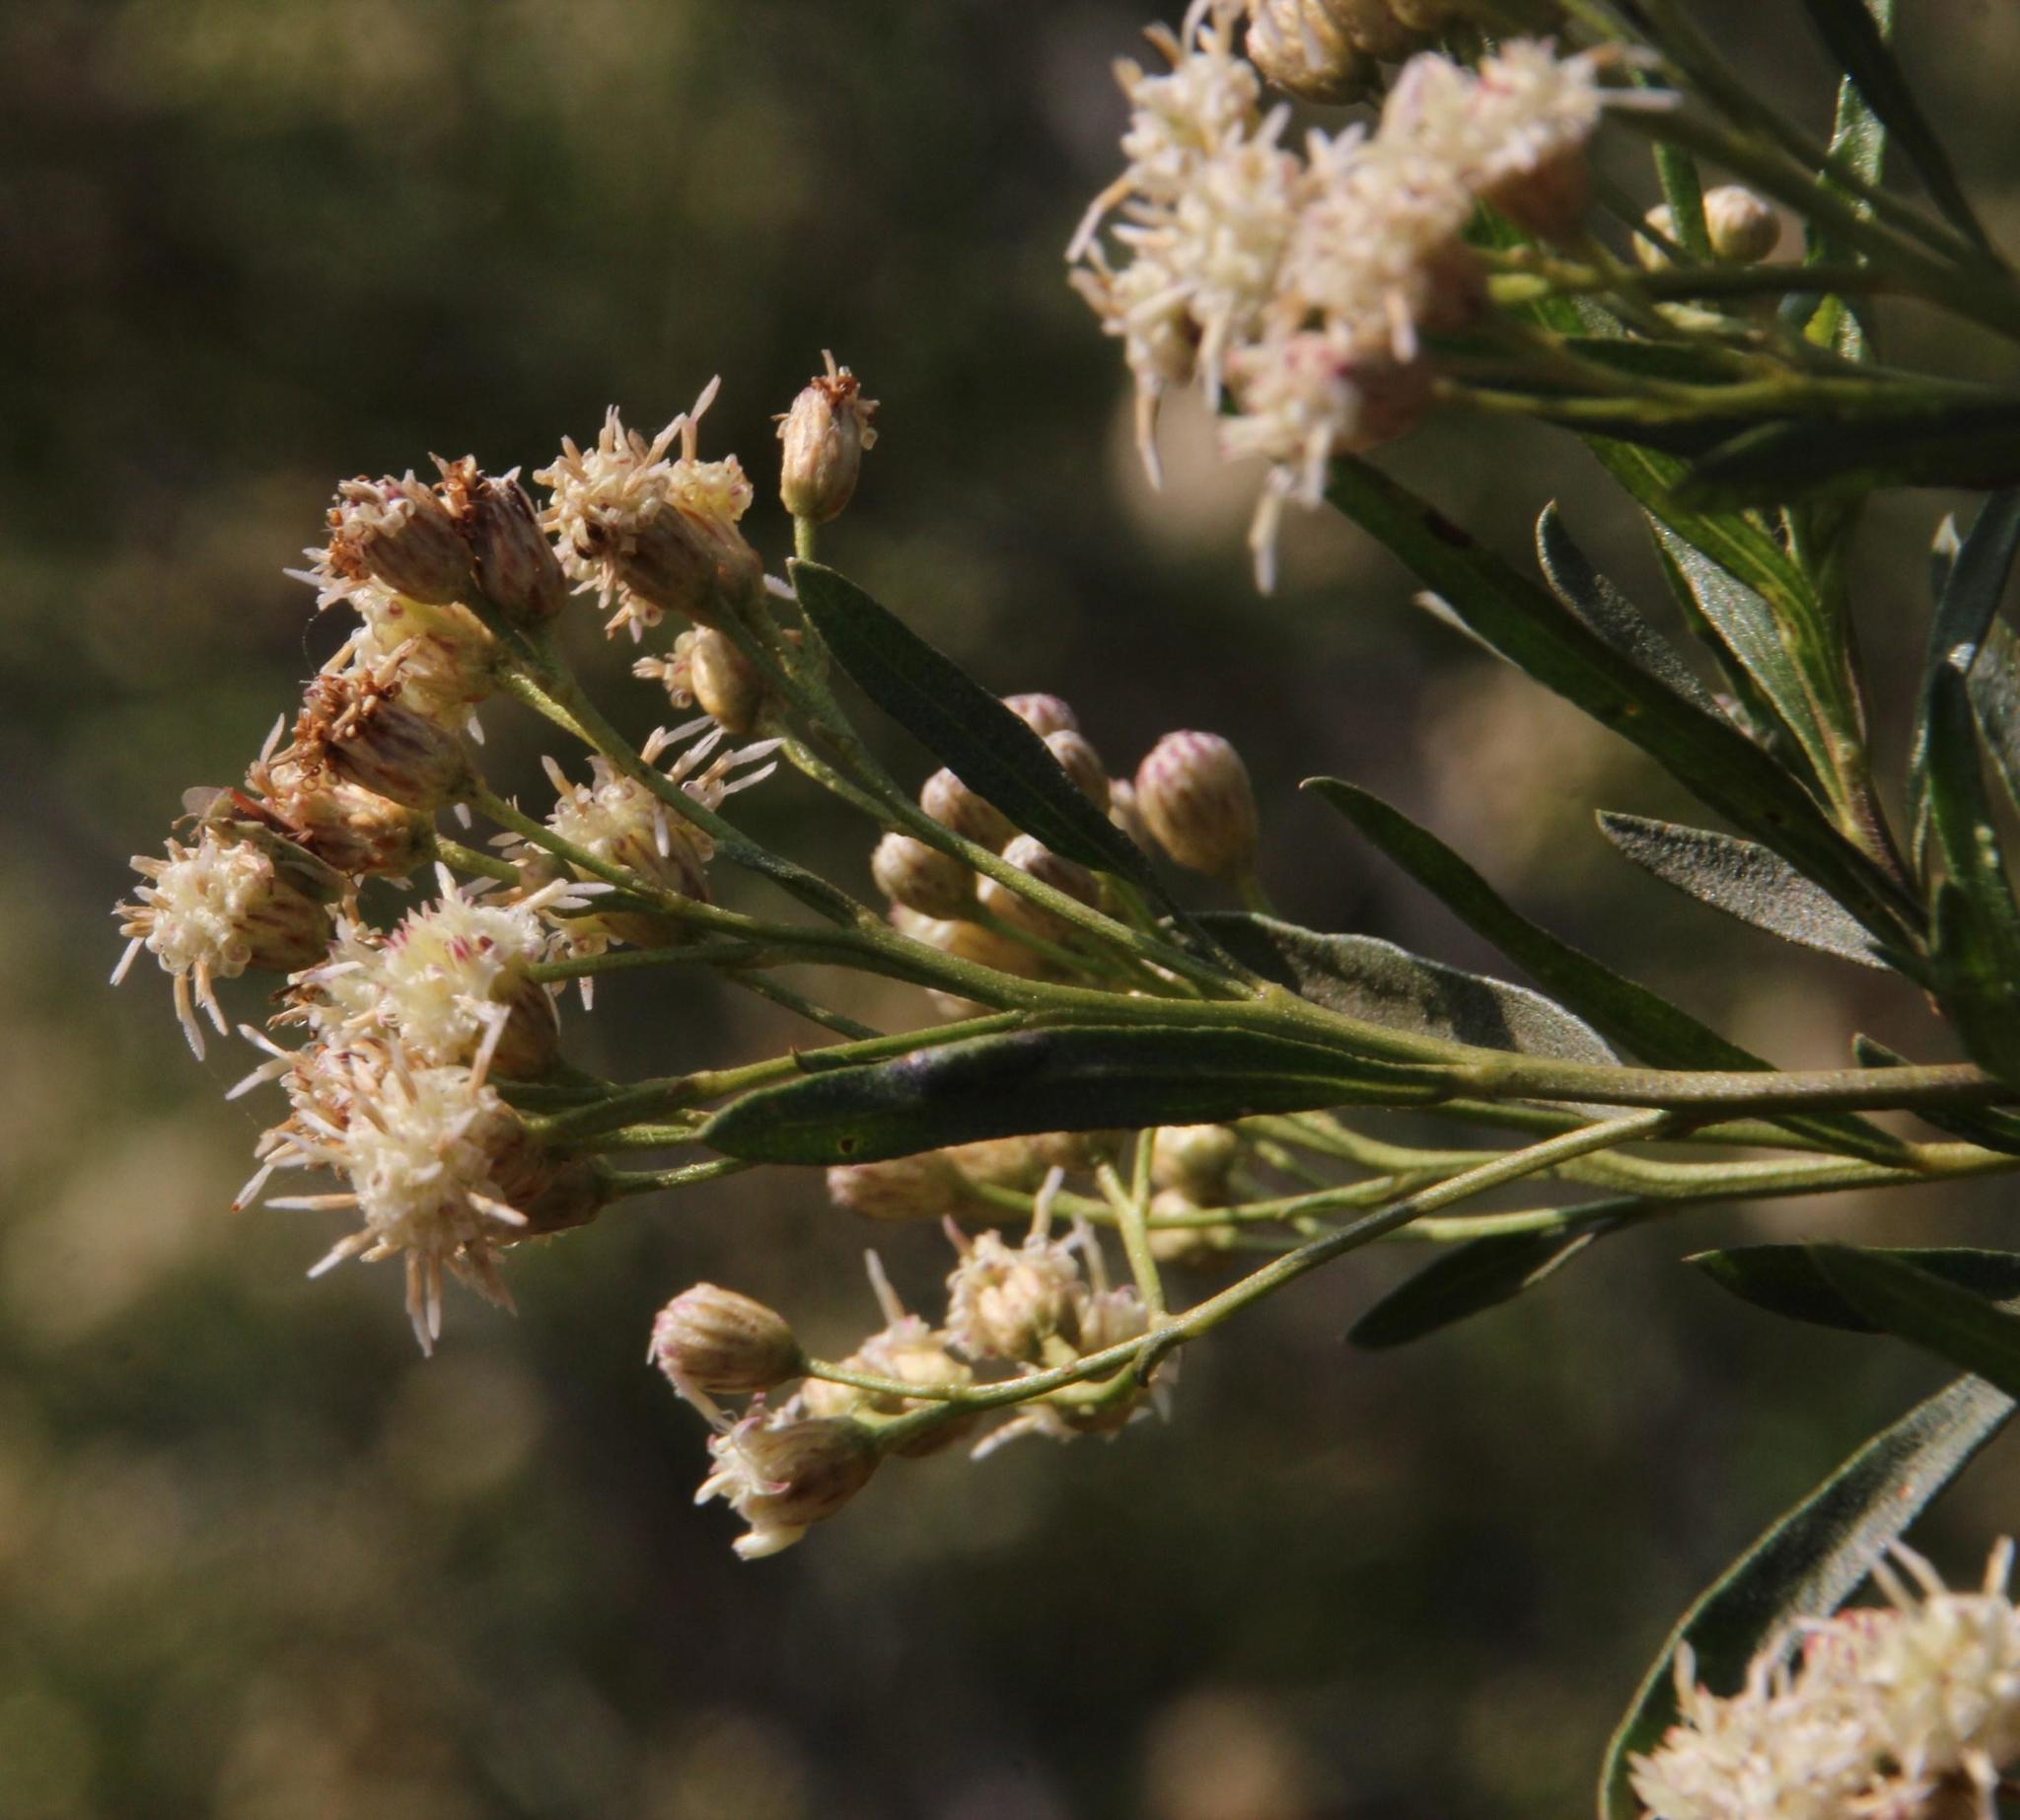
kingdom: Plantae
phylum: Tracheophyta
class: Magnoliopsida
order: Asterales
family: Asteraceae
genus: Baccharis
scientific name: Baccharis salicifolia
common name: Sticky baccharis
